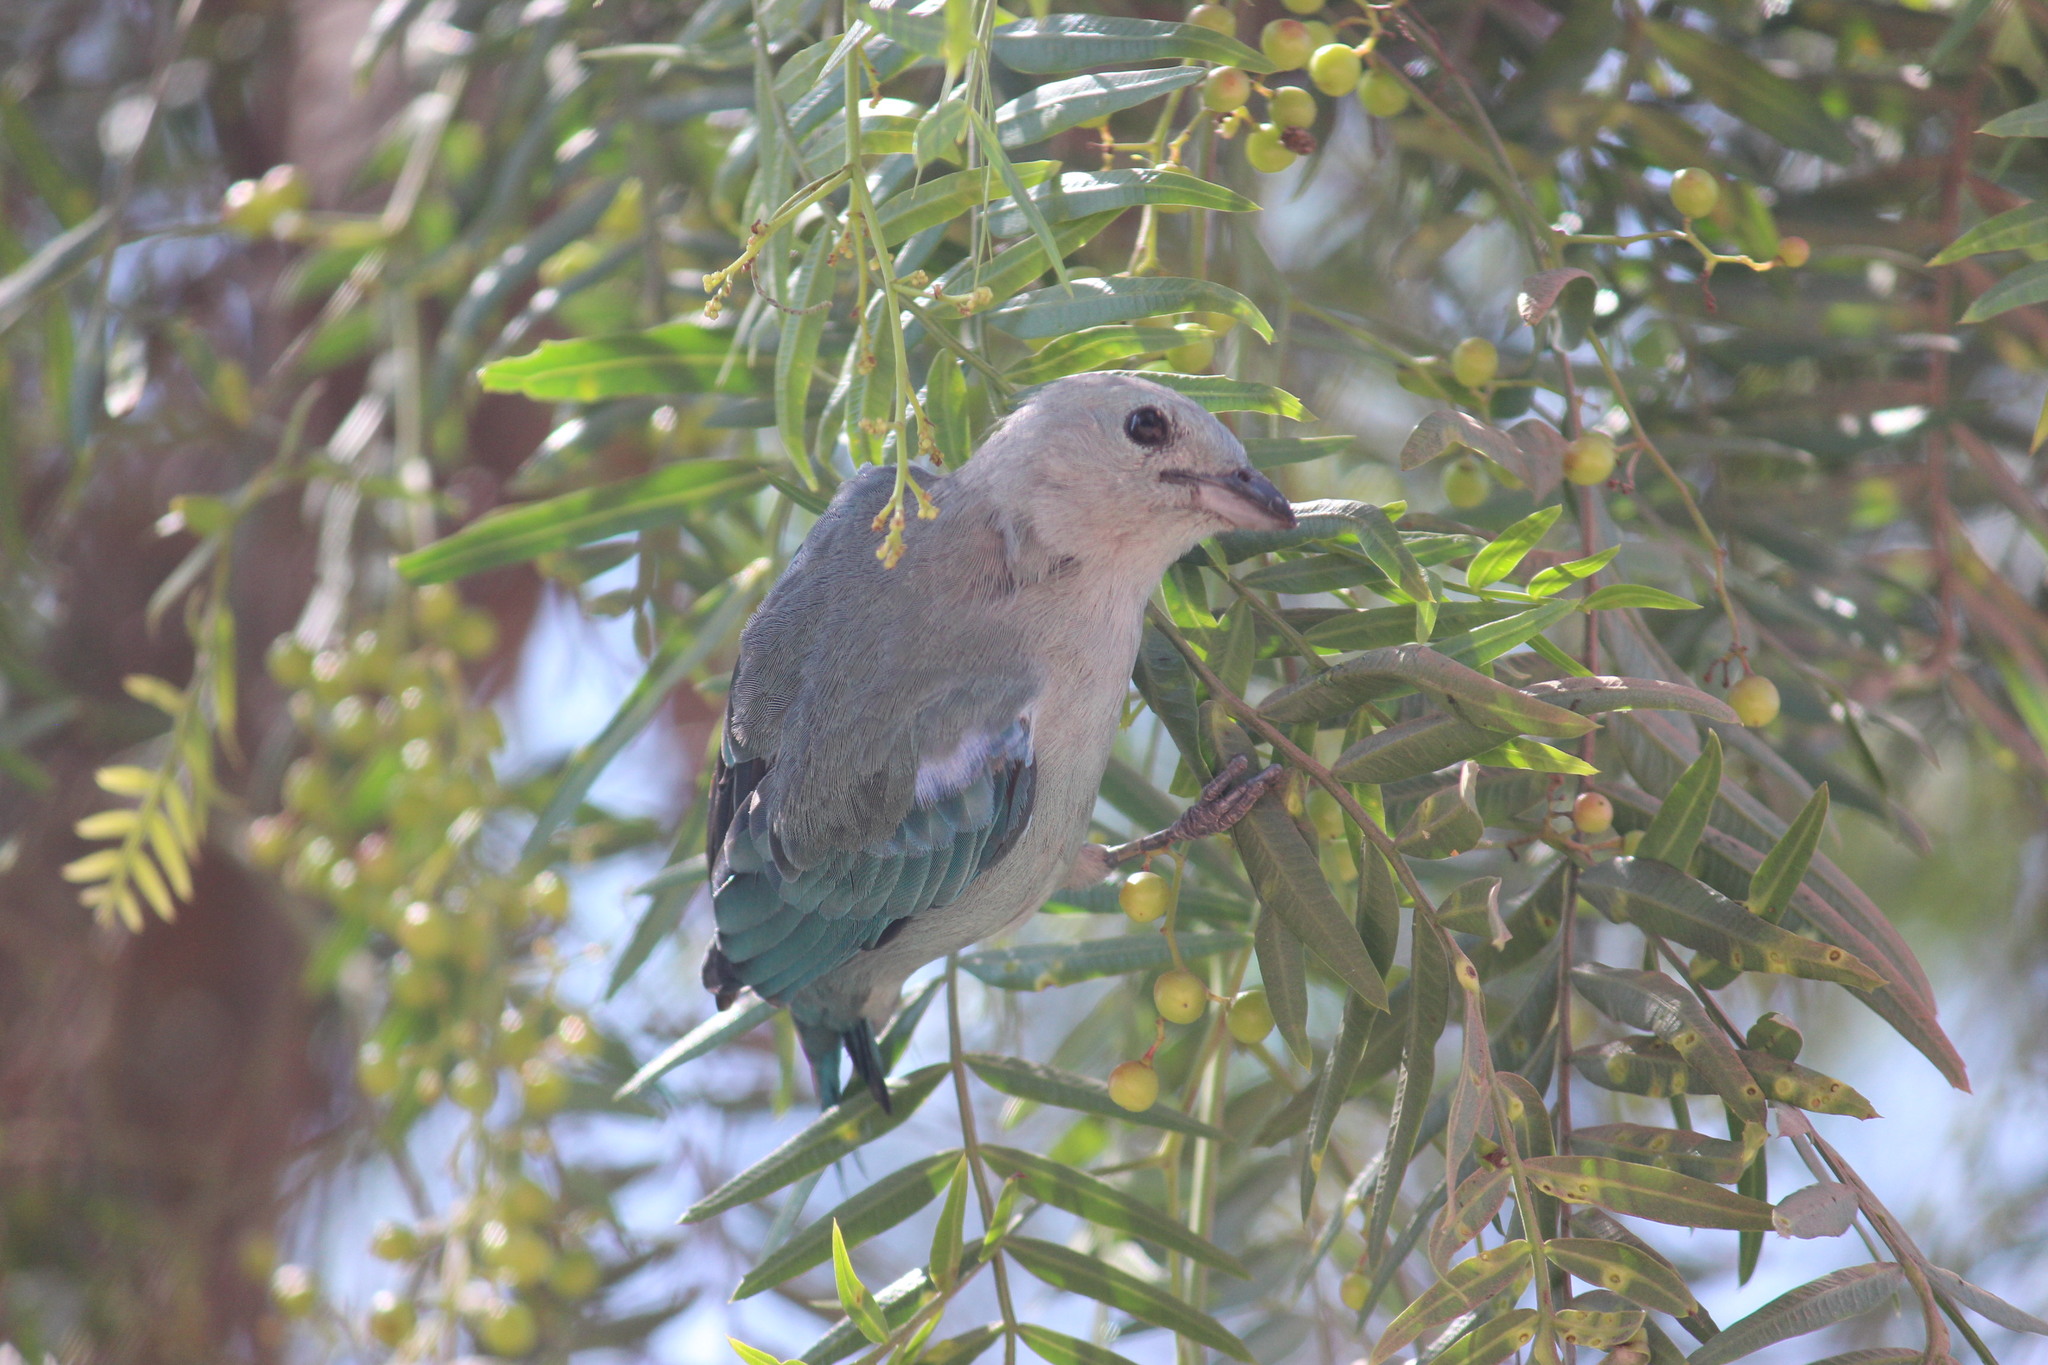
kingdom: Animalia
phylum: Chordata
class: Aves
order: Passeriformes
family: Thraupidae
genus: Thraupis
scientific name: Thraupis episcopus
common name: Blue-grey tanager
